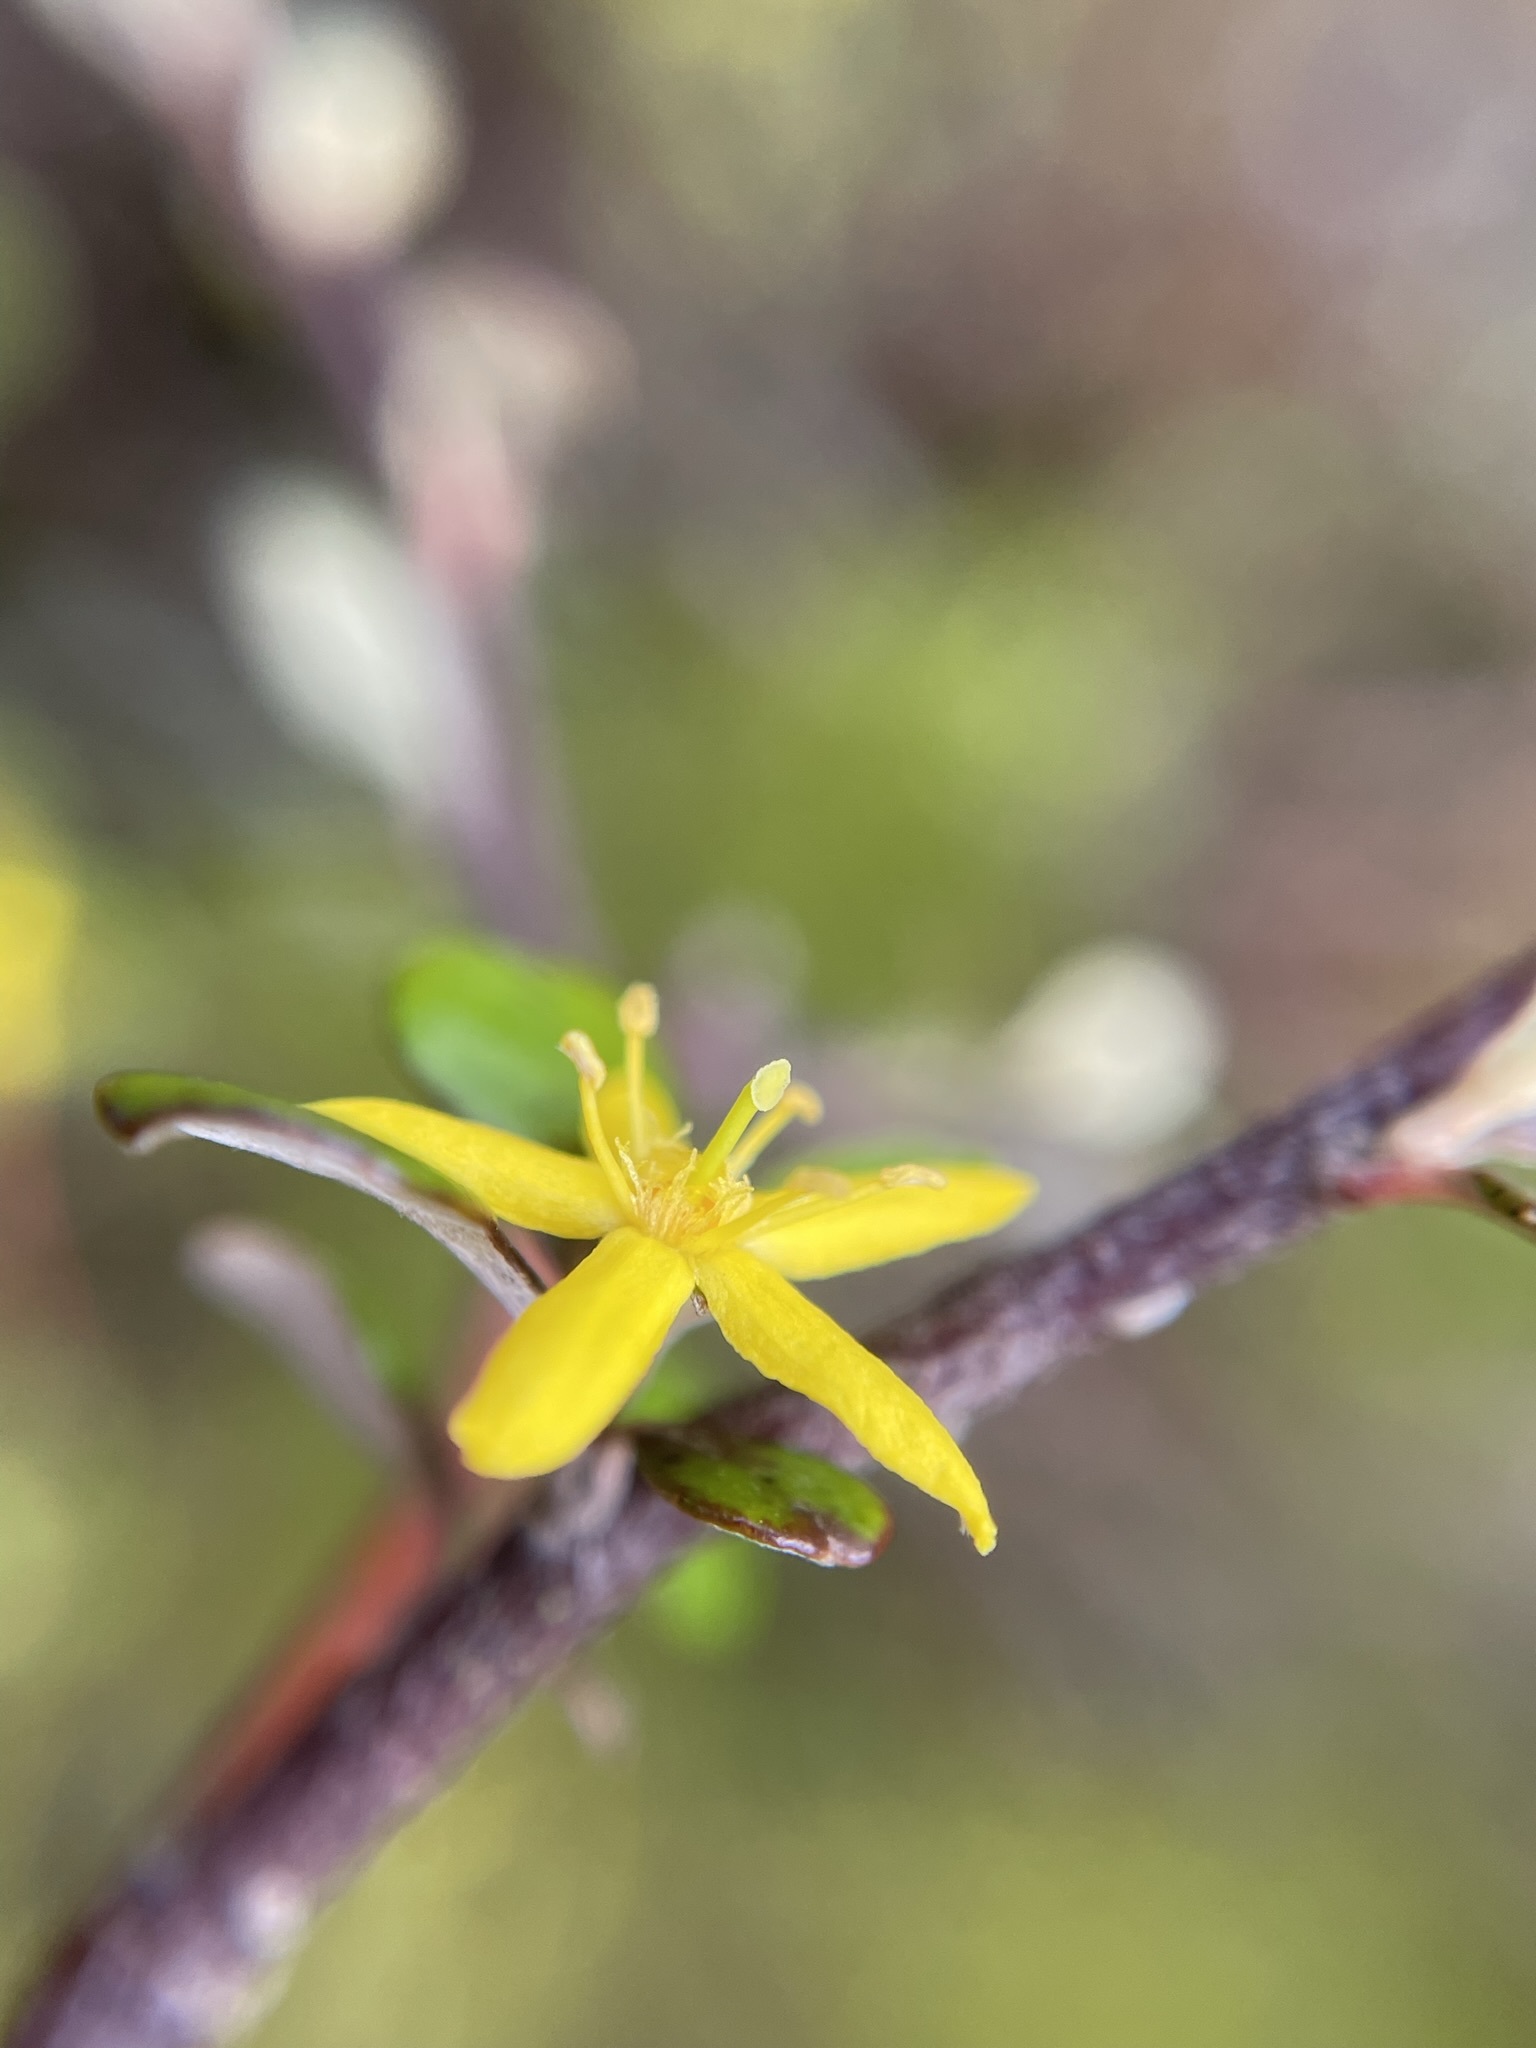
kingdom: Plantae
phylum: Tracheophyta
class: Magnoliopsida
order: Asterales
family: Argophyllaceae
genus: Corokia
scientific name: Corokia cotoneaster
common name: Wire nettingbush
